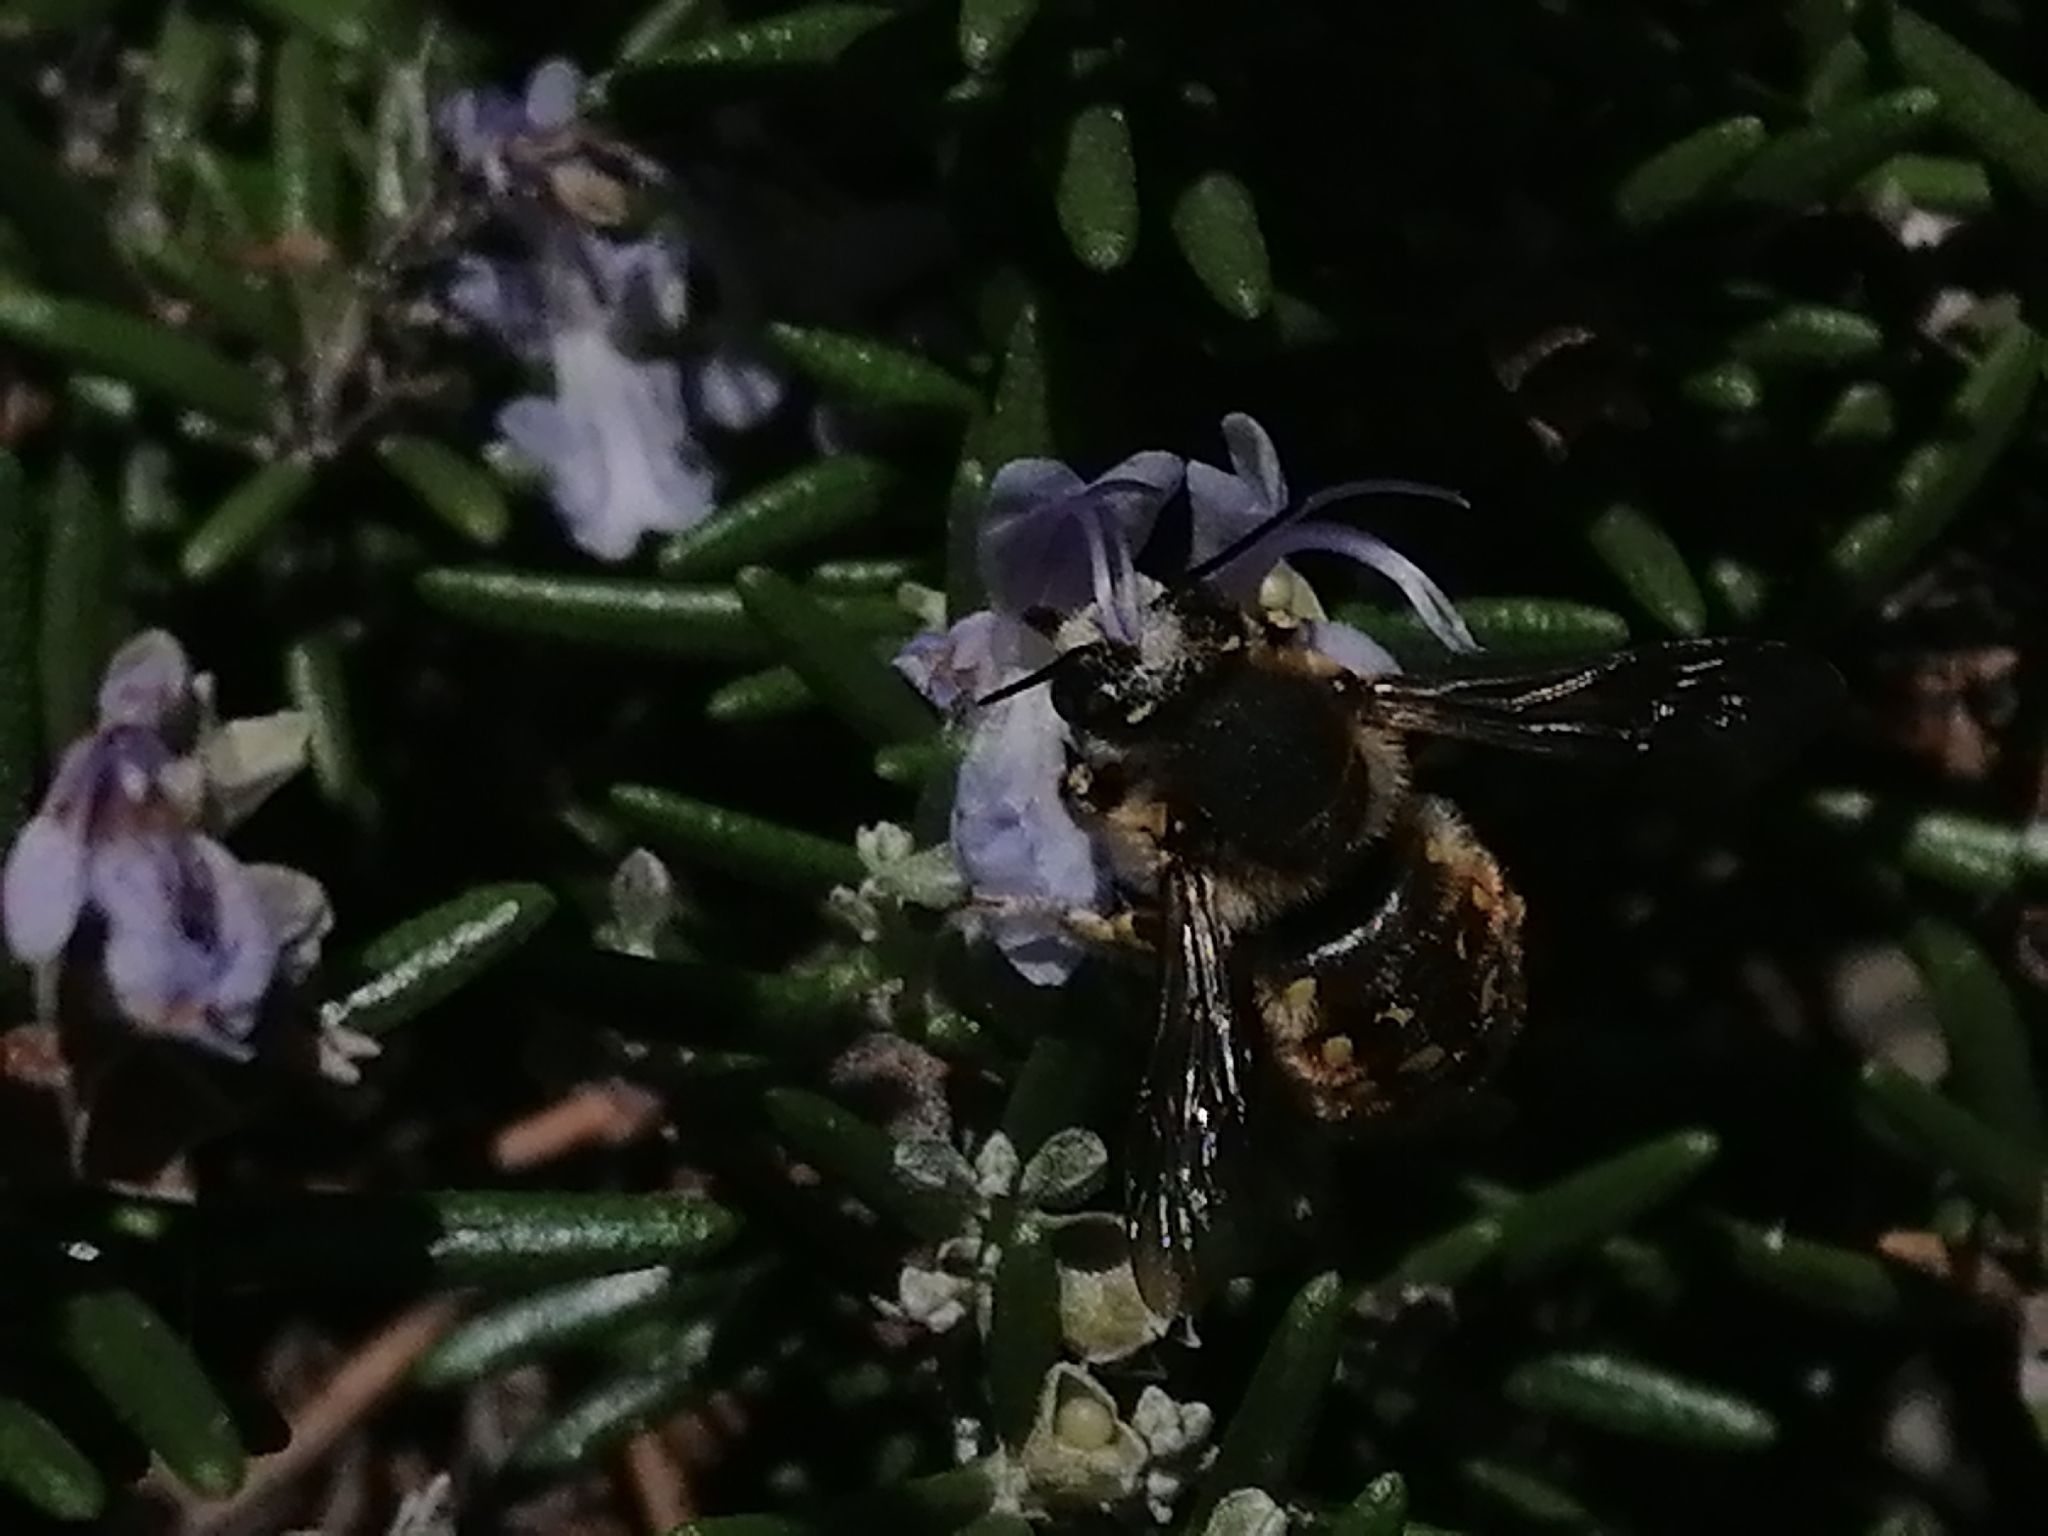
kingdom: Animalia
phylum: Arthropoda
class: Insecta
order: Hymenoptera
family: Megachilidae
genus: Anthidium
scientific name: Anthidium manicatum
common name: Wool carder bee
